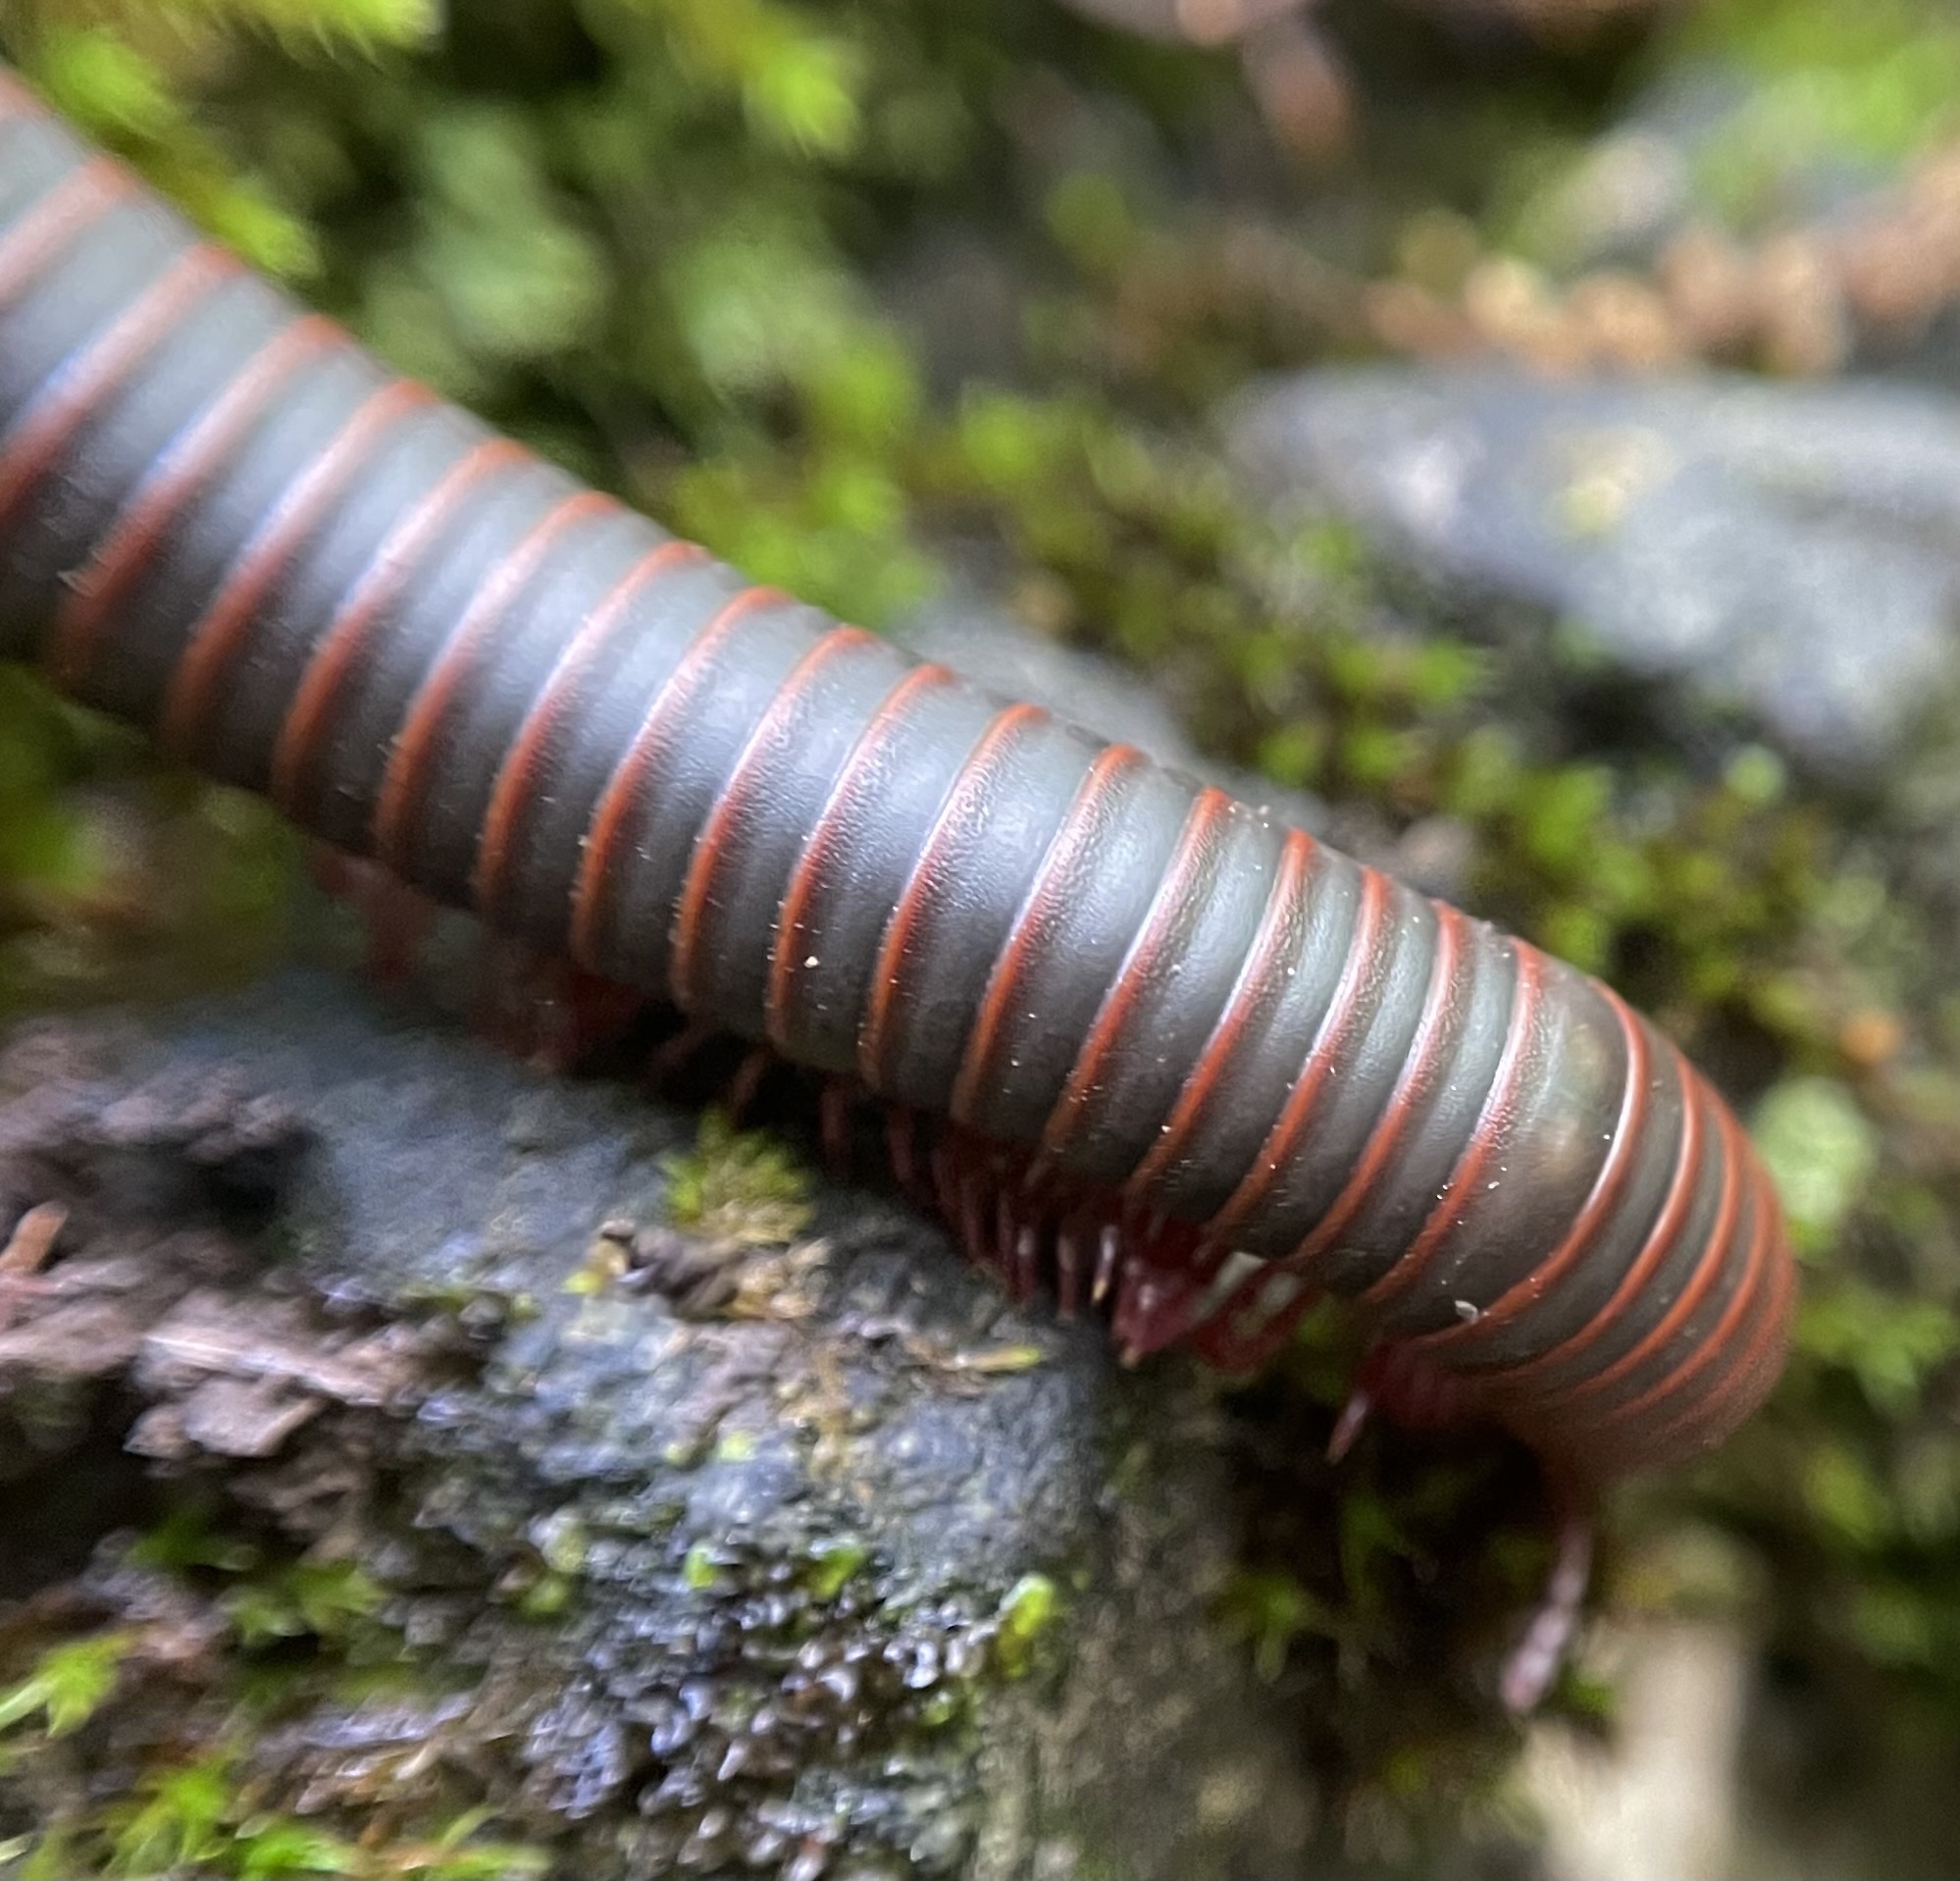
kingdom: Animalia
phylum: Arthropoda
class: Diplopoda
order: Spirobolida
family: Spirobolidae
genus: Narceus
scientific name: Narceus
